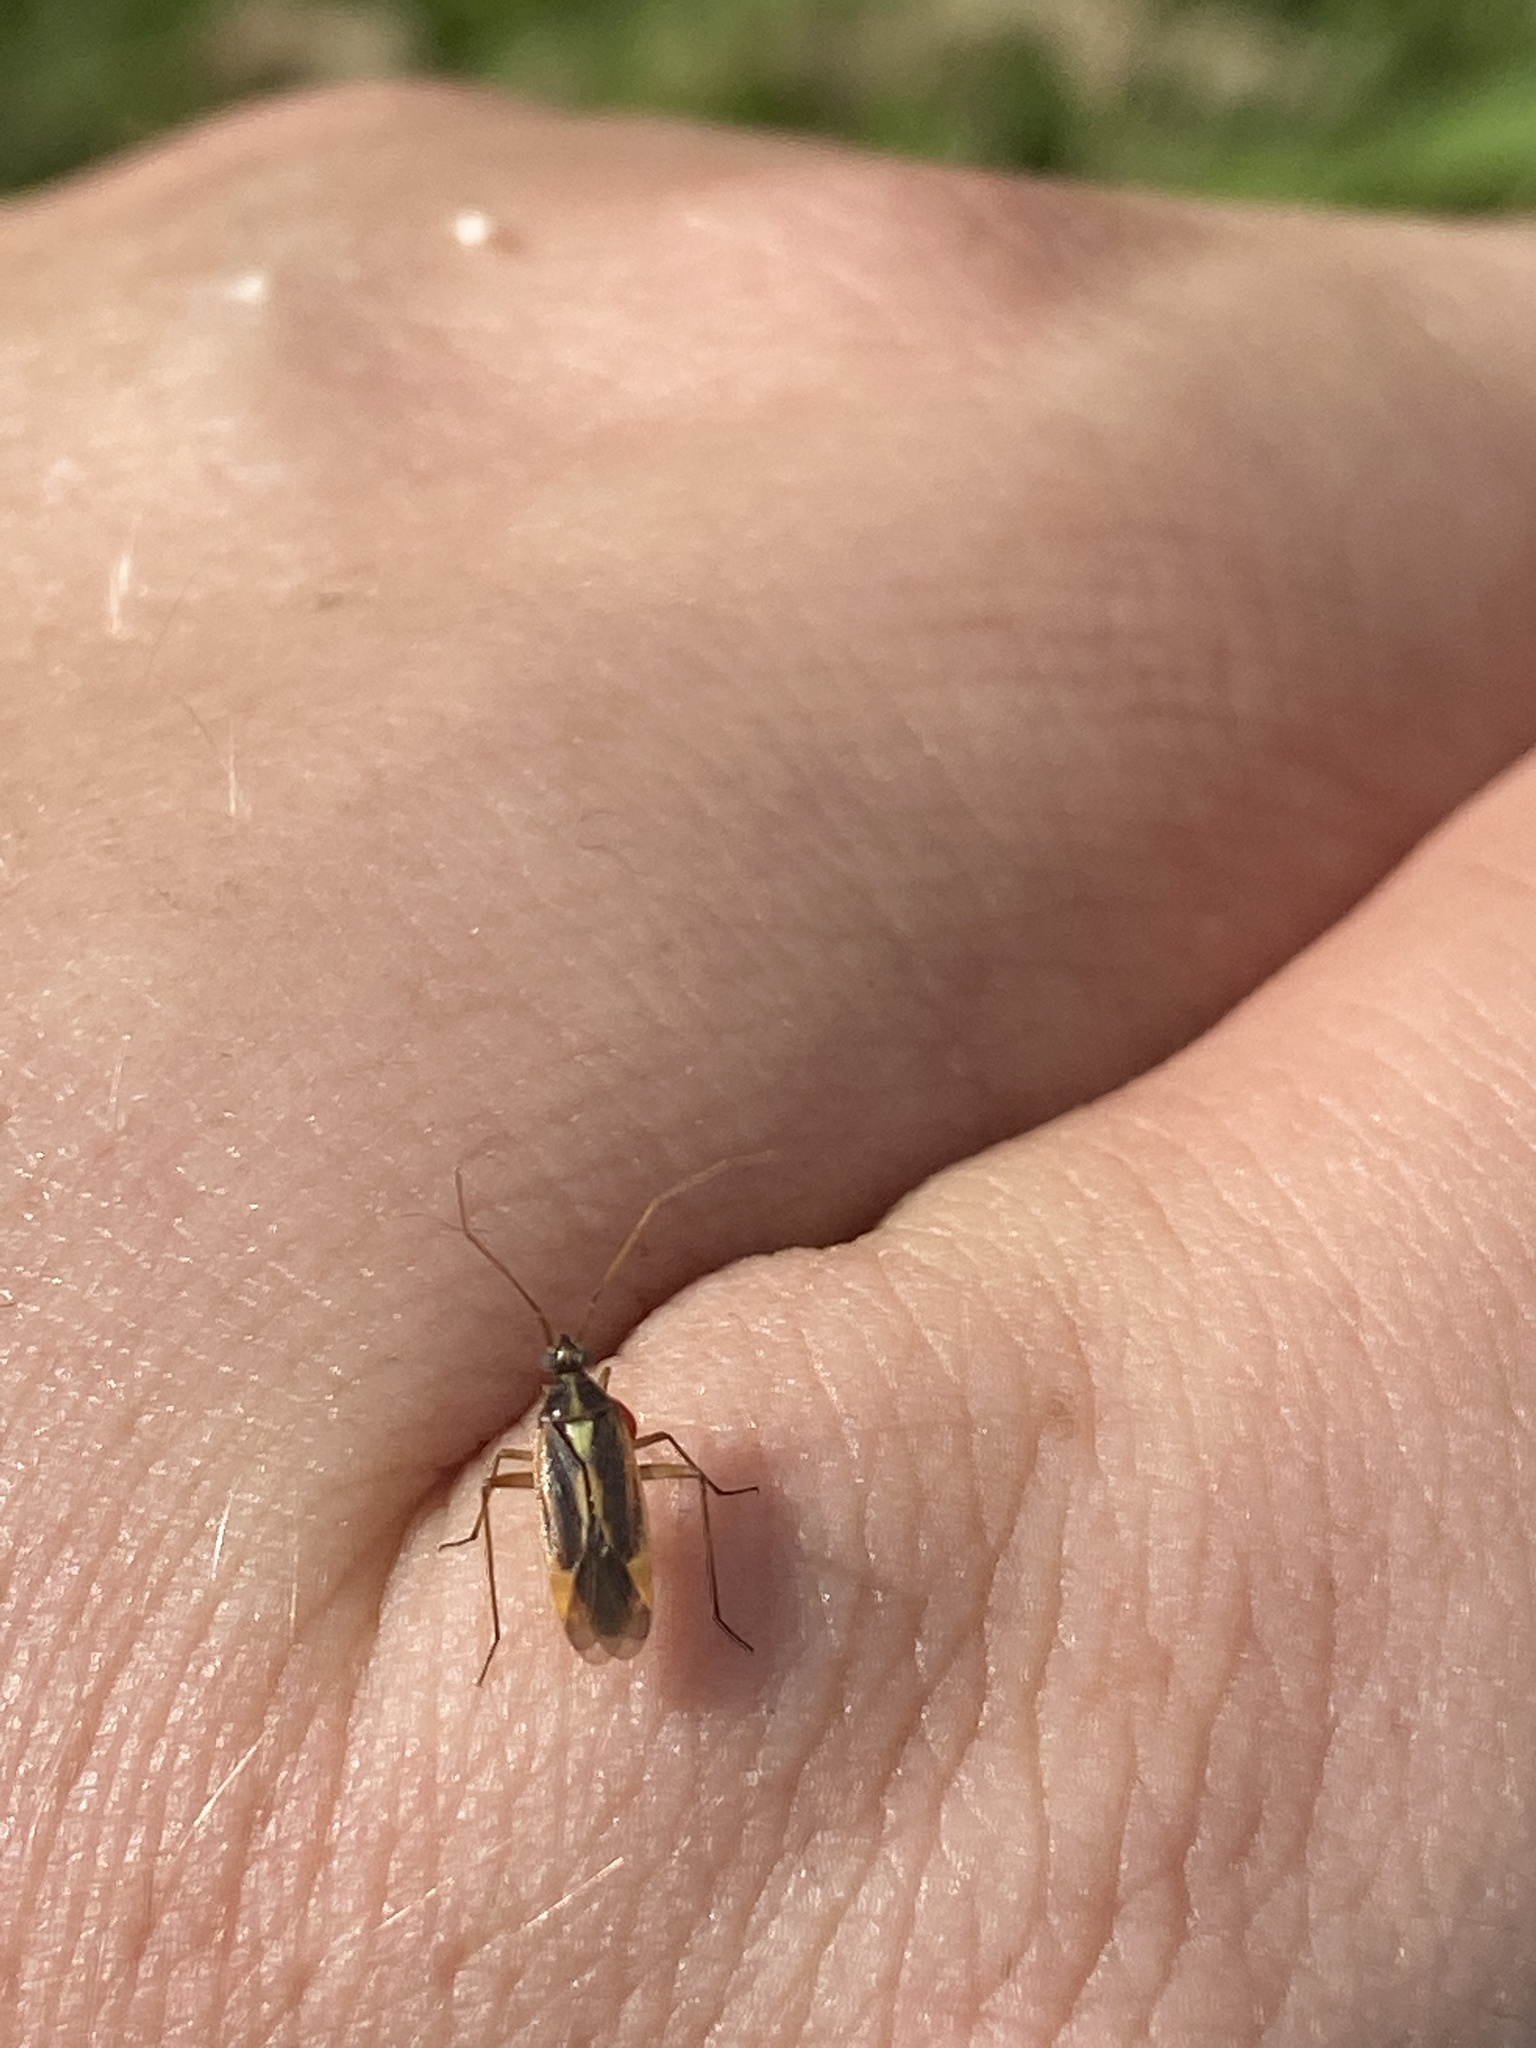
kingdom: Animalia
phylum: Arthropoda
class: Insecta
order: Hemiptera
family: Miridae
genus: Stenotus
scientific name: Stenotus binotatus
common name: Plant bug
